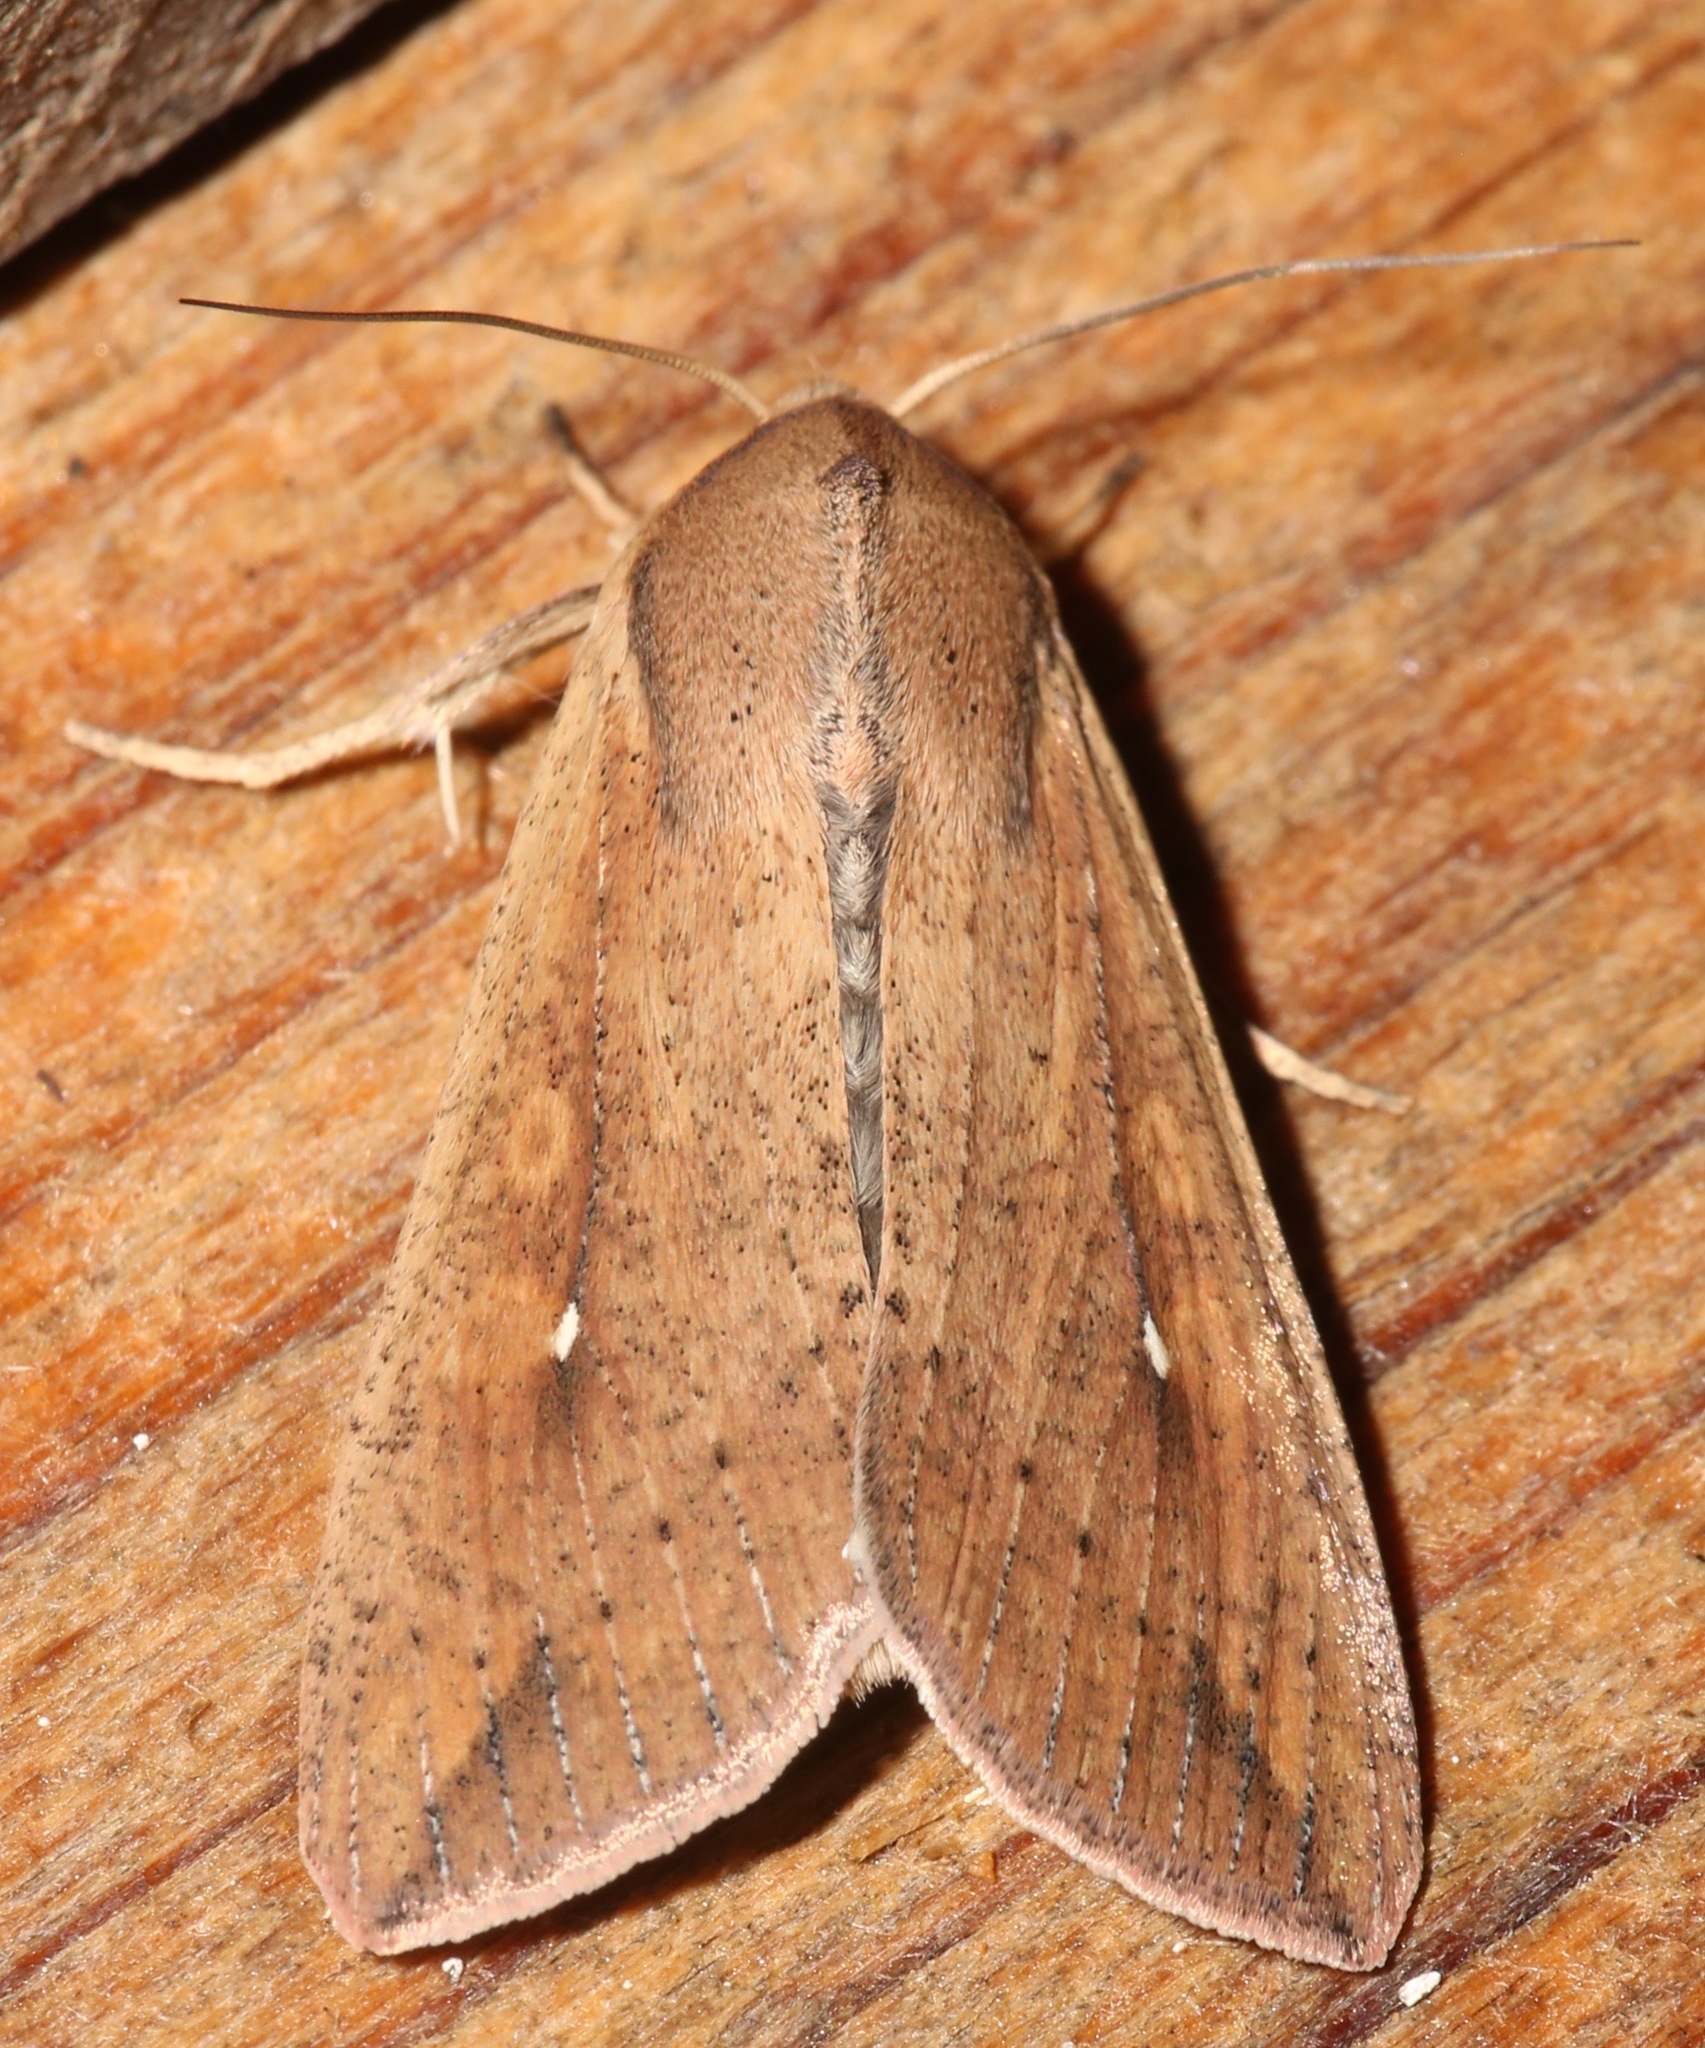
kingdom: Animalia
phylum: Arthropoda
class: Insecta
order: Lepidoptera
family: Noctuidae
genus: Mythimna
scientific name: Mythimna unipuncta
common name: White-speck
